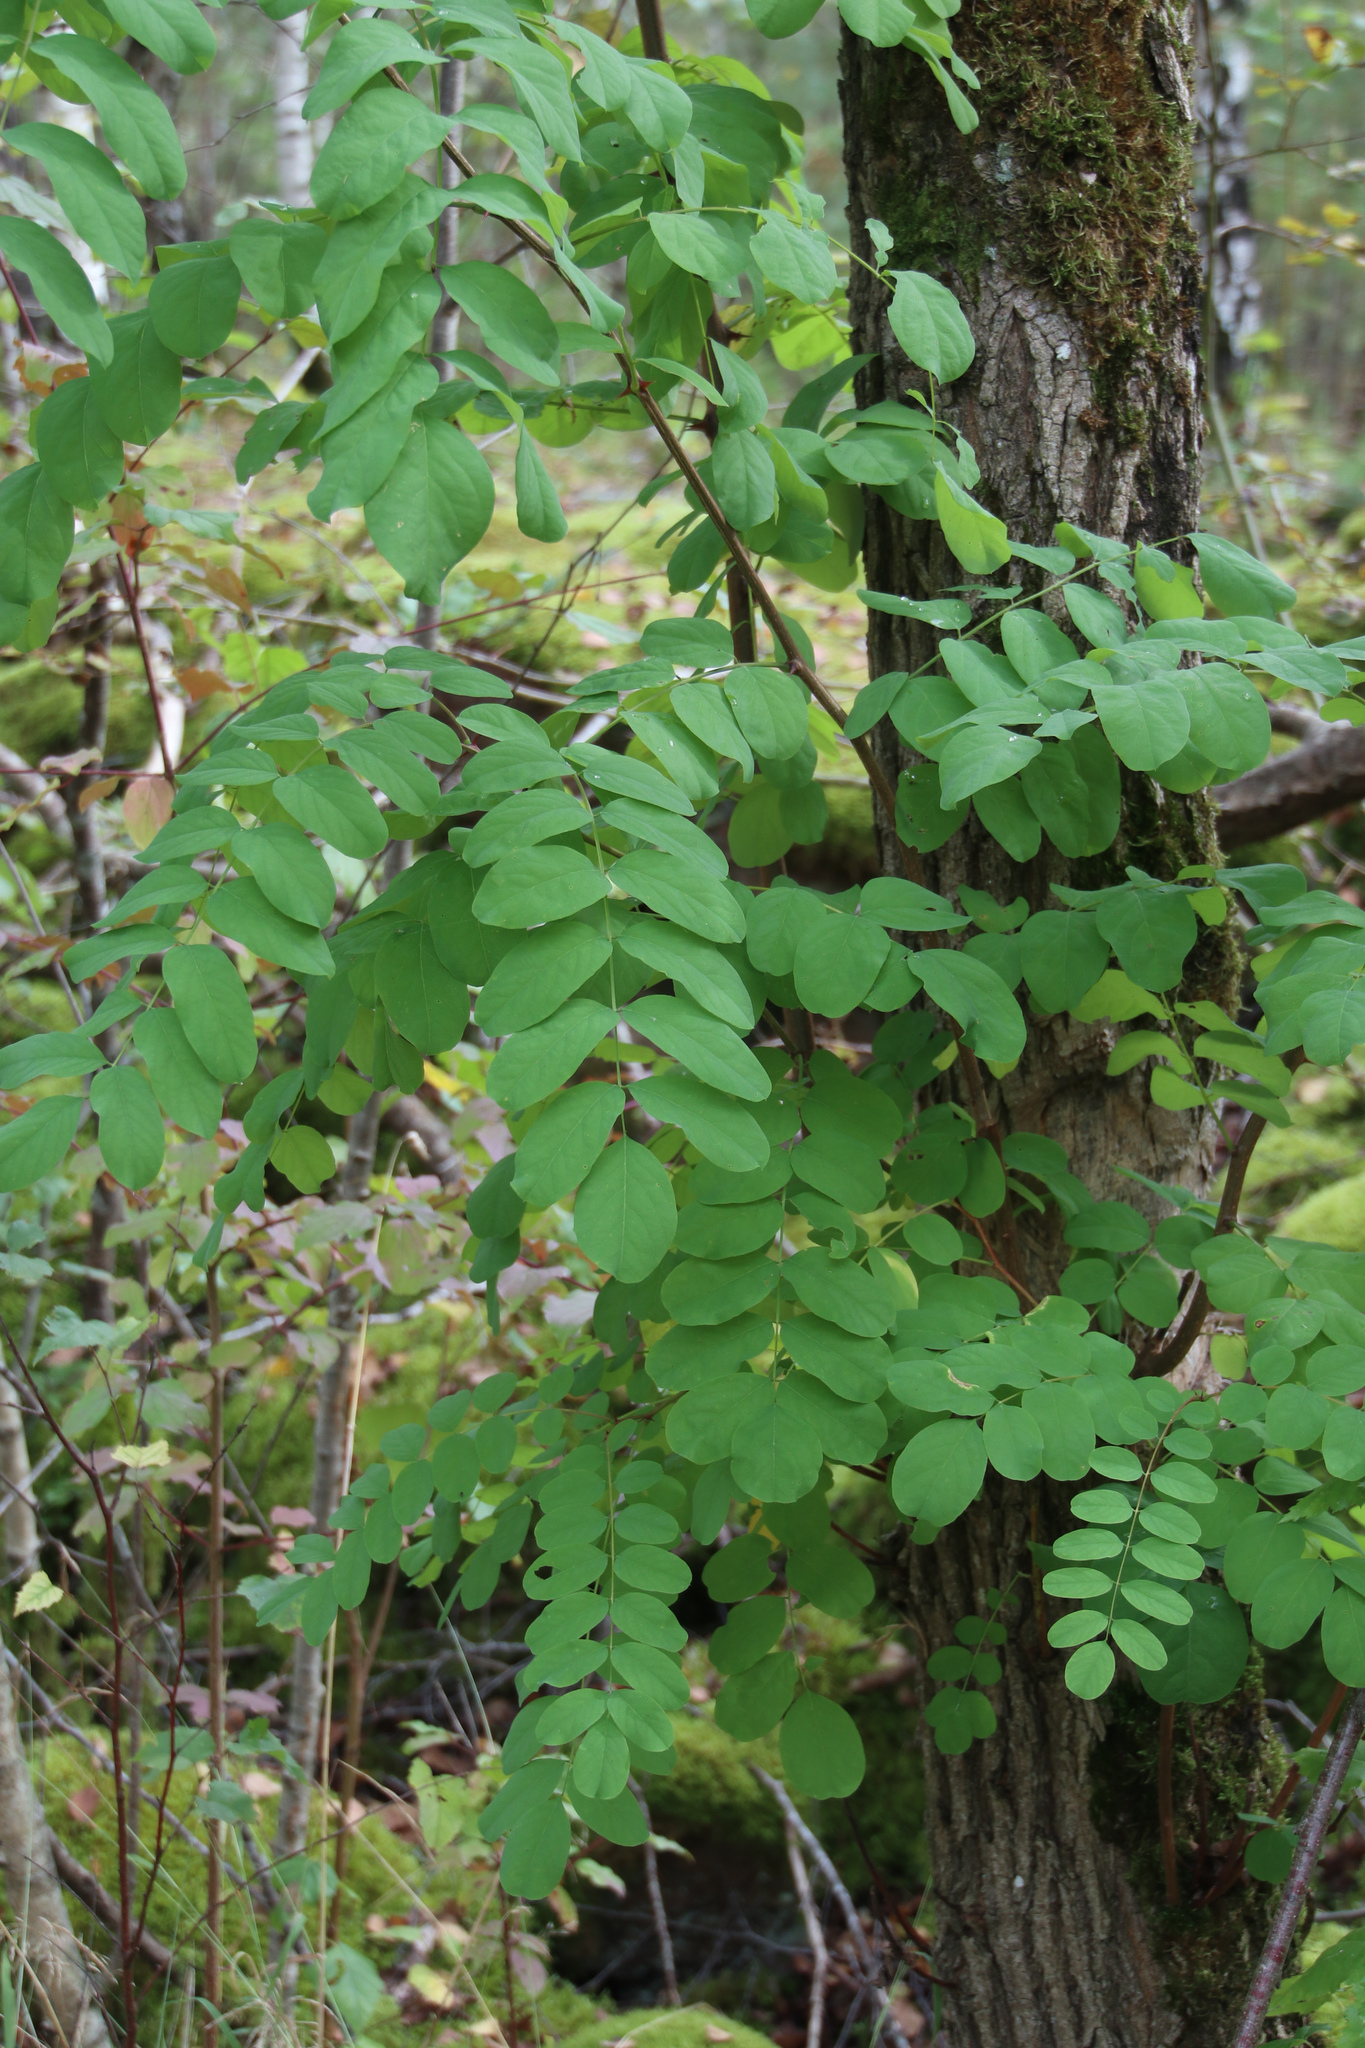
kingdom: Plantae
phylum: Tracheophyta
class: Magnoliopsida
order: Fabales
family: Fabaceae
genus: Robinia
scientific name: Robinia pseudoacacia
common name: Black locust
